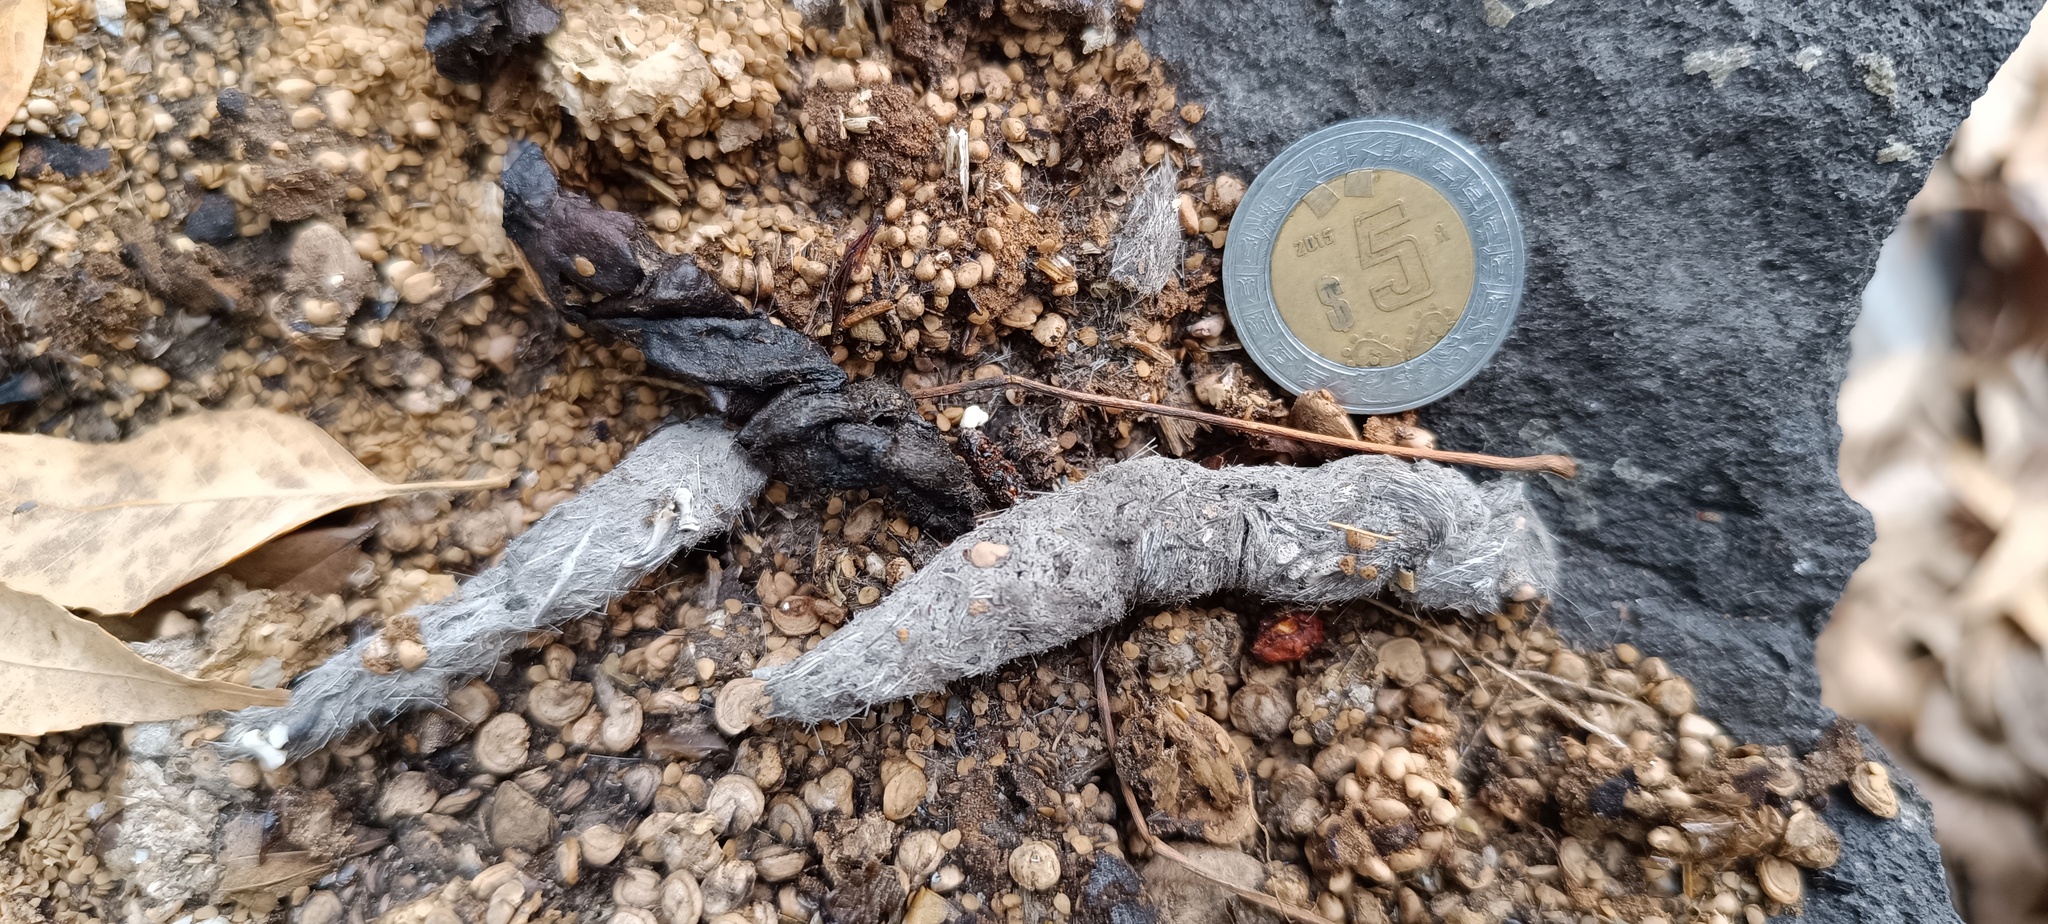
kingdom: Animalia
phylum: Chordata
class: Mammalia
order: Carnivora
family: Procyonidae
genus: Bassariscus
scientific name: Bassariscus astutus
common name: Ringtail
